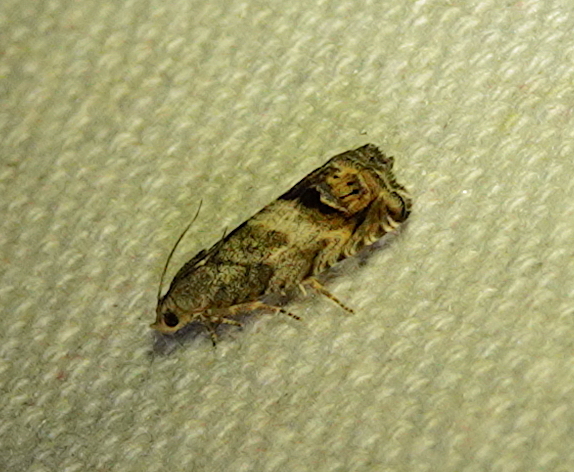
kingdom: Animalia
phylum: Arthropoda
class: Insecta
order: Lepidoptera
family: Tortricidae
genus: Cydia
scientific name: Cydia pomonella
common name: Codling moth
